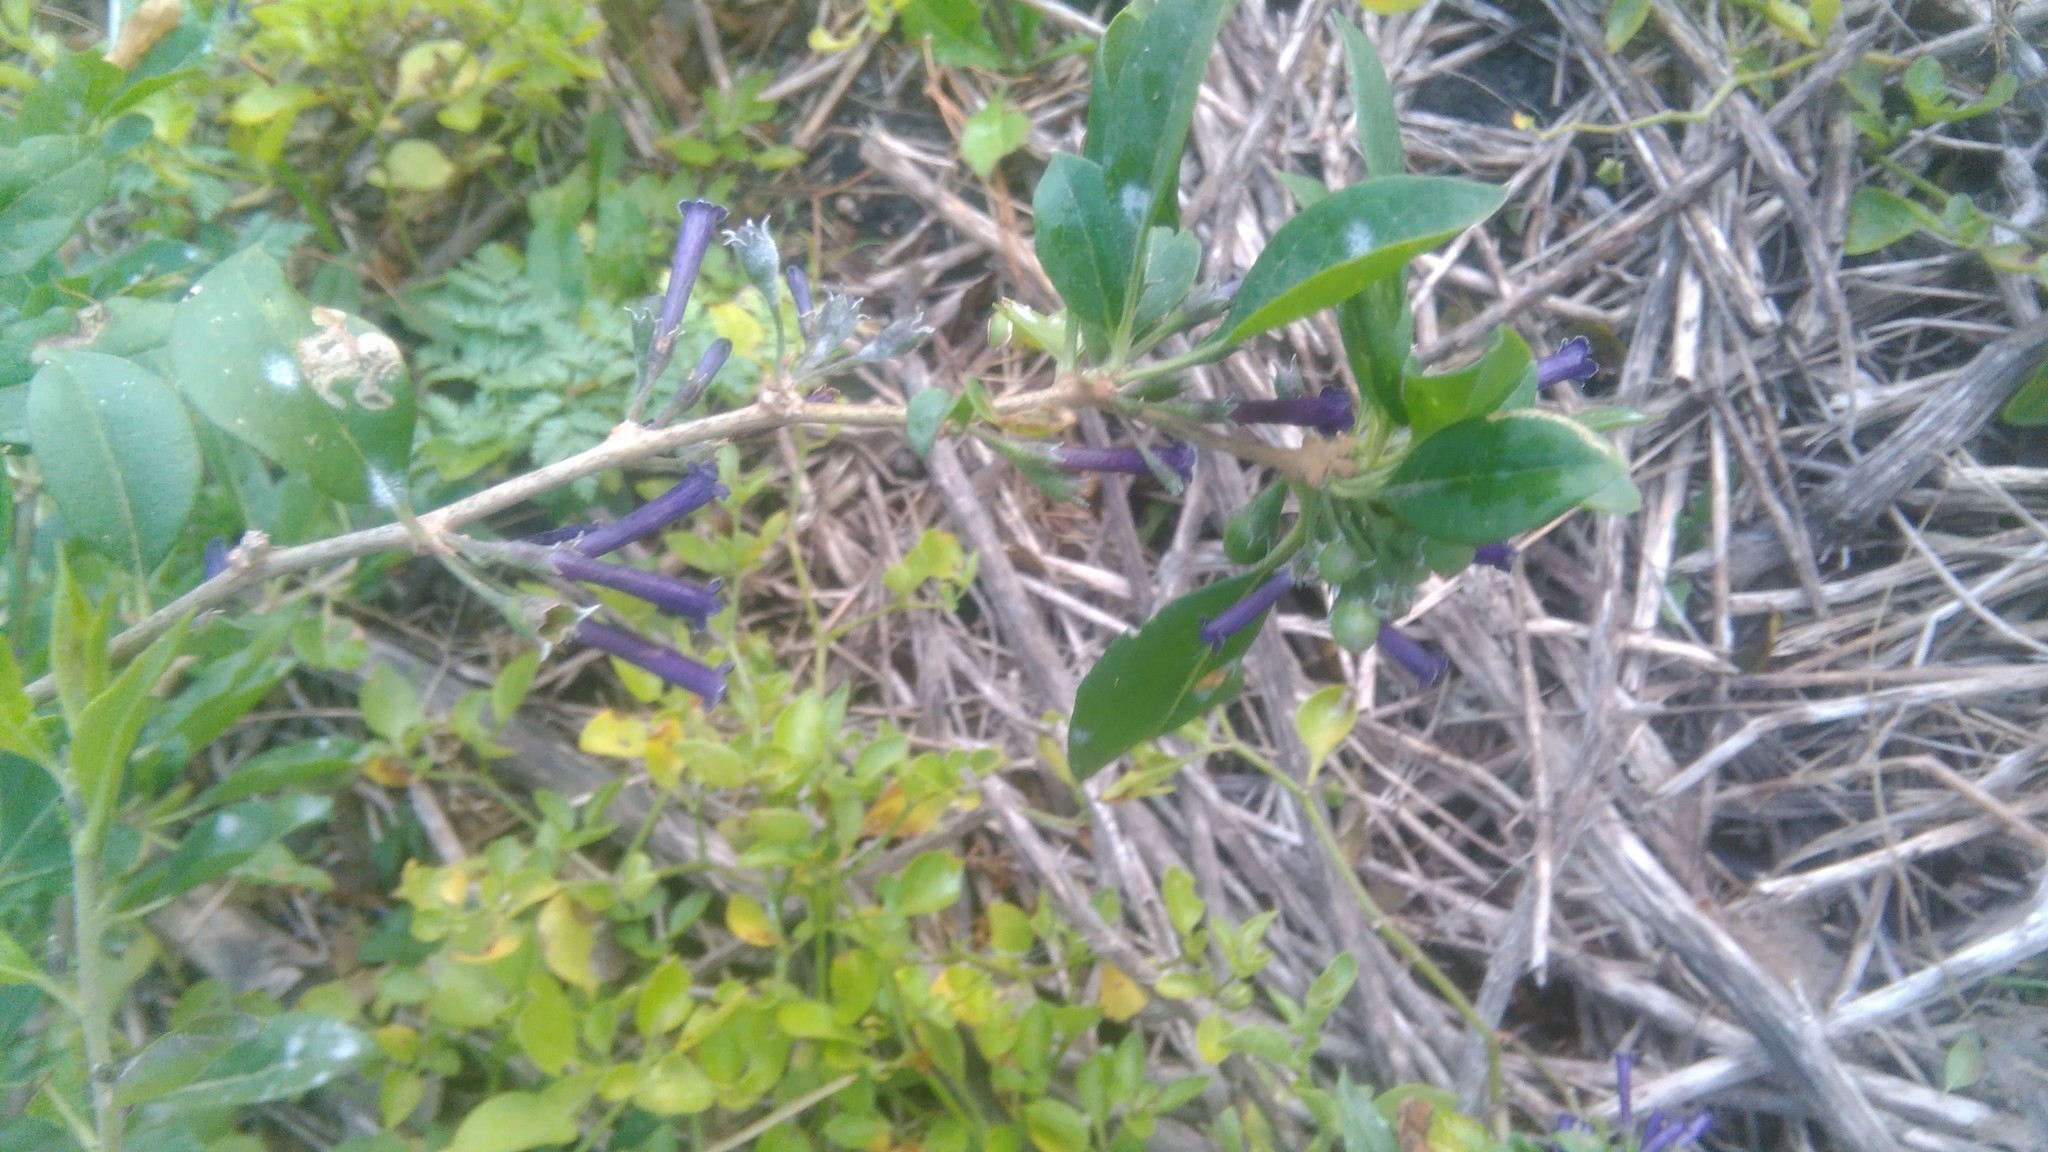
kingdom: Plantae
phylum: Tracheophyta
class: Magnoliopsida
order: Solanales
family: Solanaceae
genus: Lycium
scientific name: Lycium cestroides
